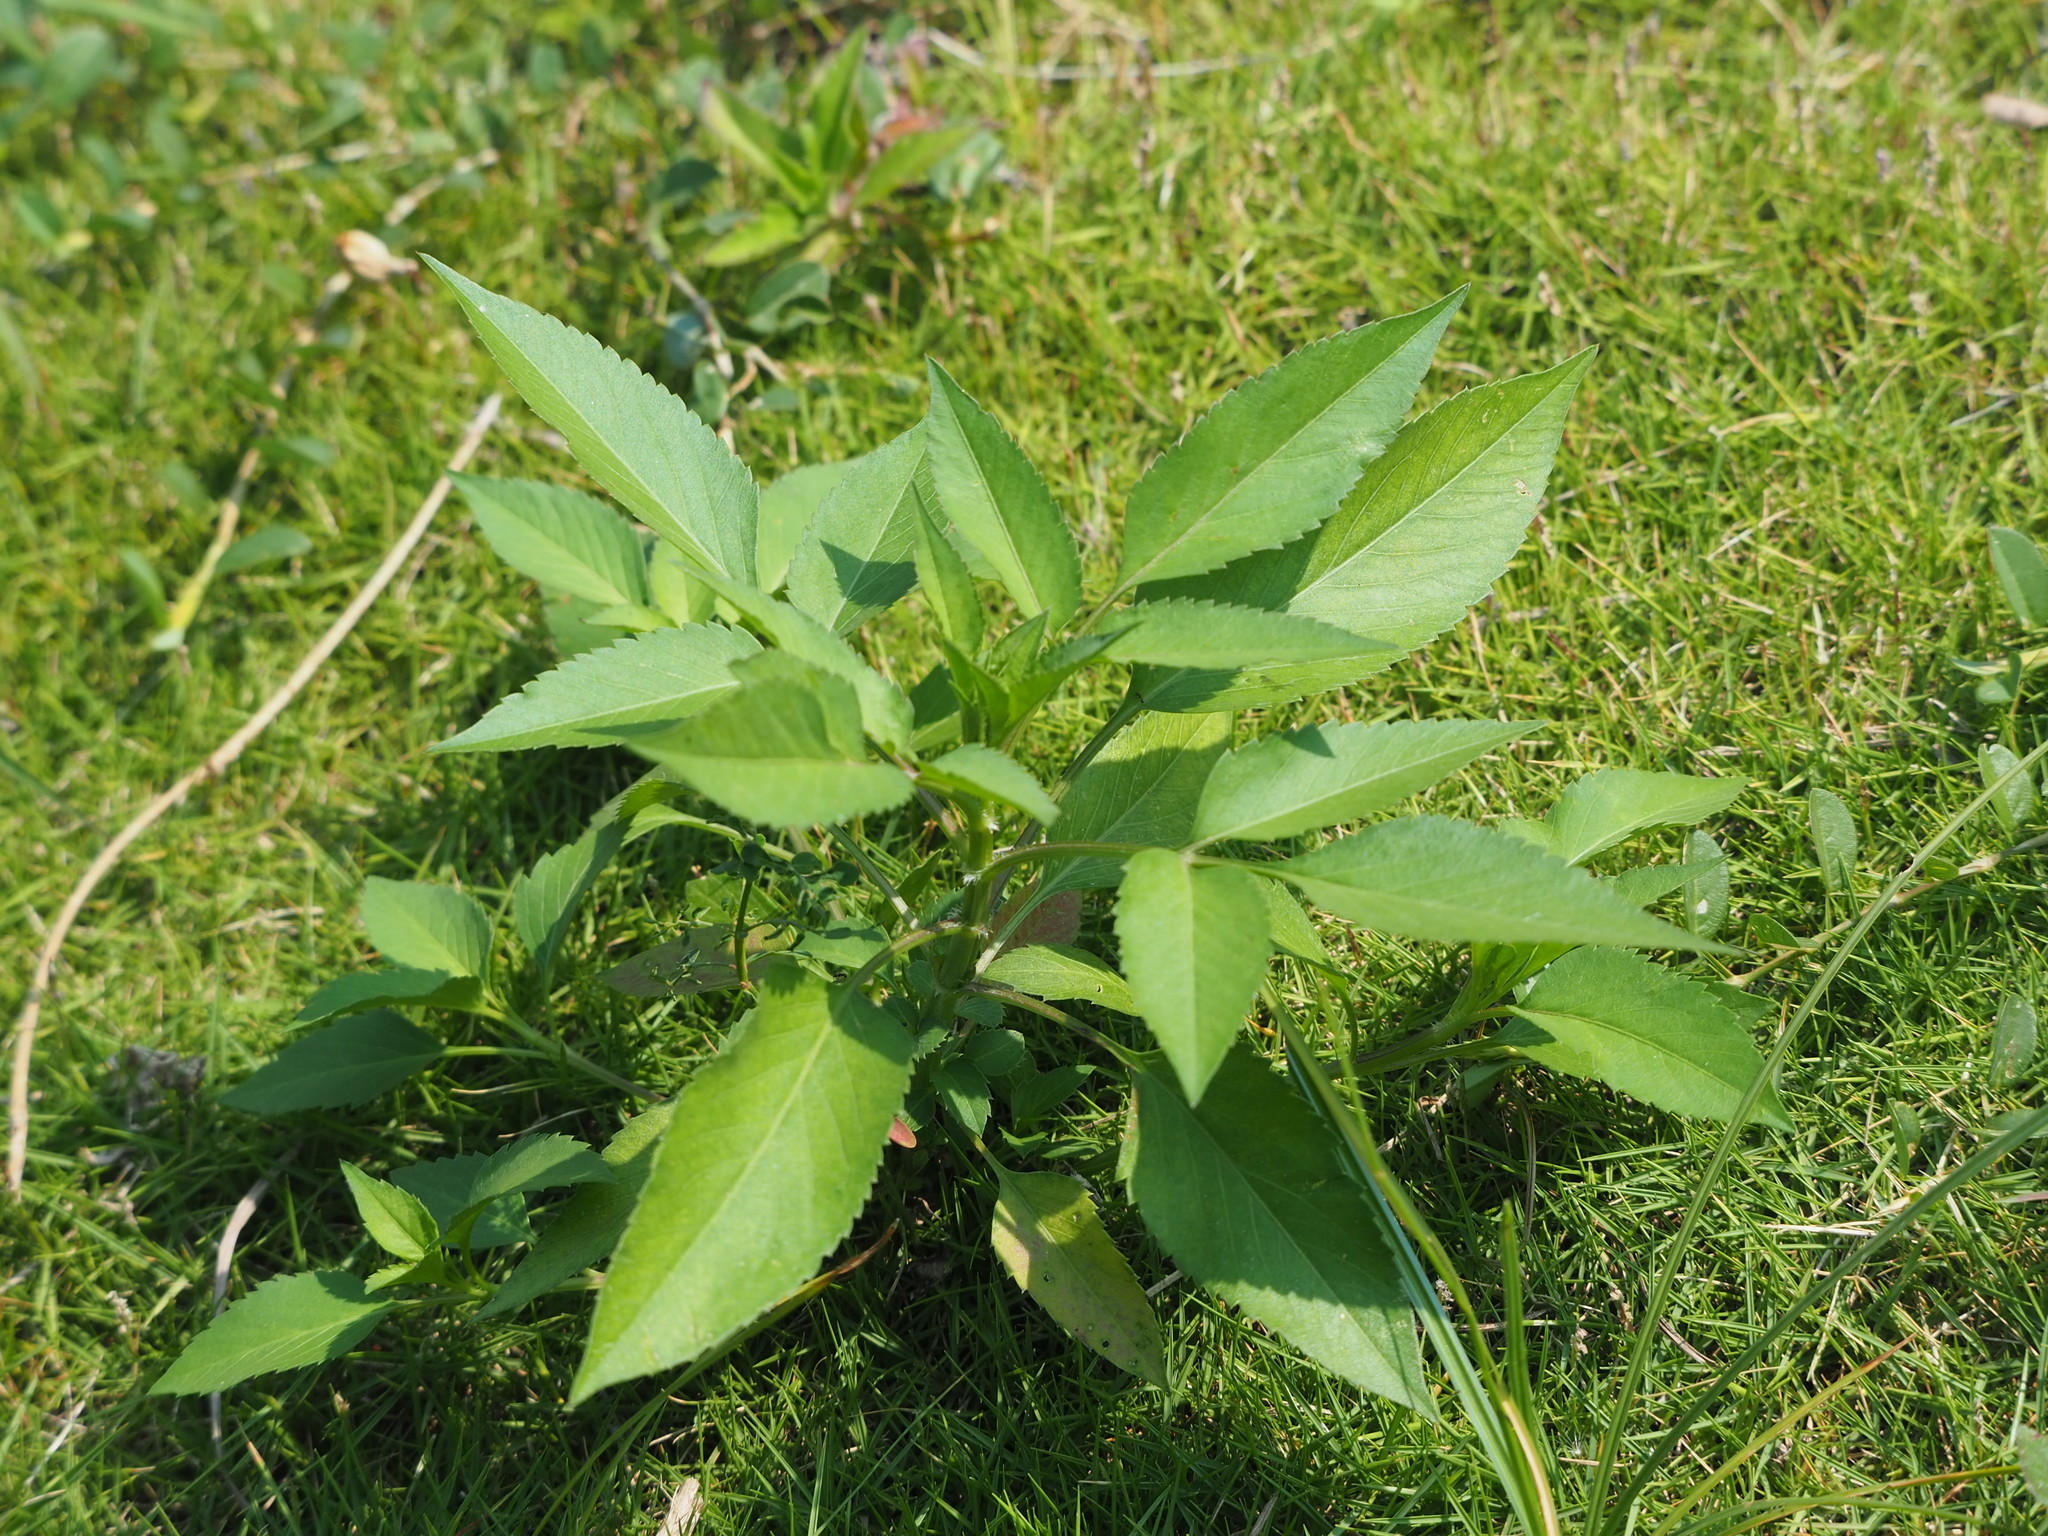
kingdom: Plantae
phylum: Tracheophyta
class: Magnoliopsida
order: Asterales
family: Asteraceae
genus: Bidens
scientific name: Bidens alba
